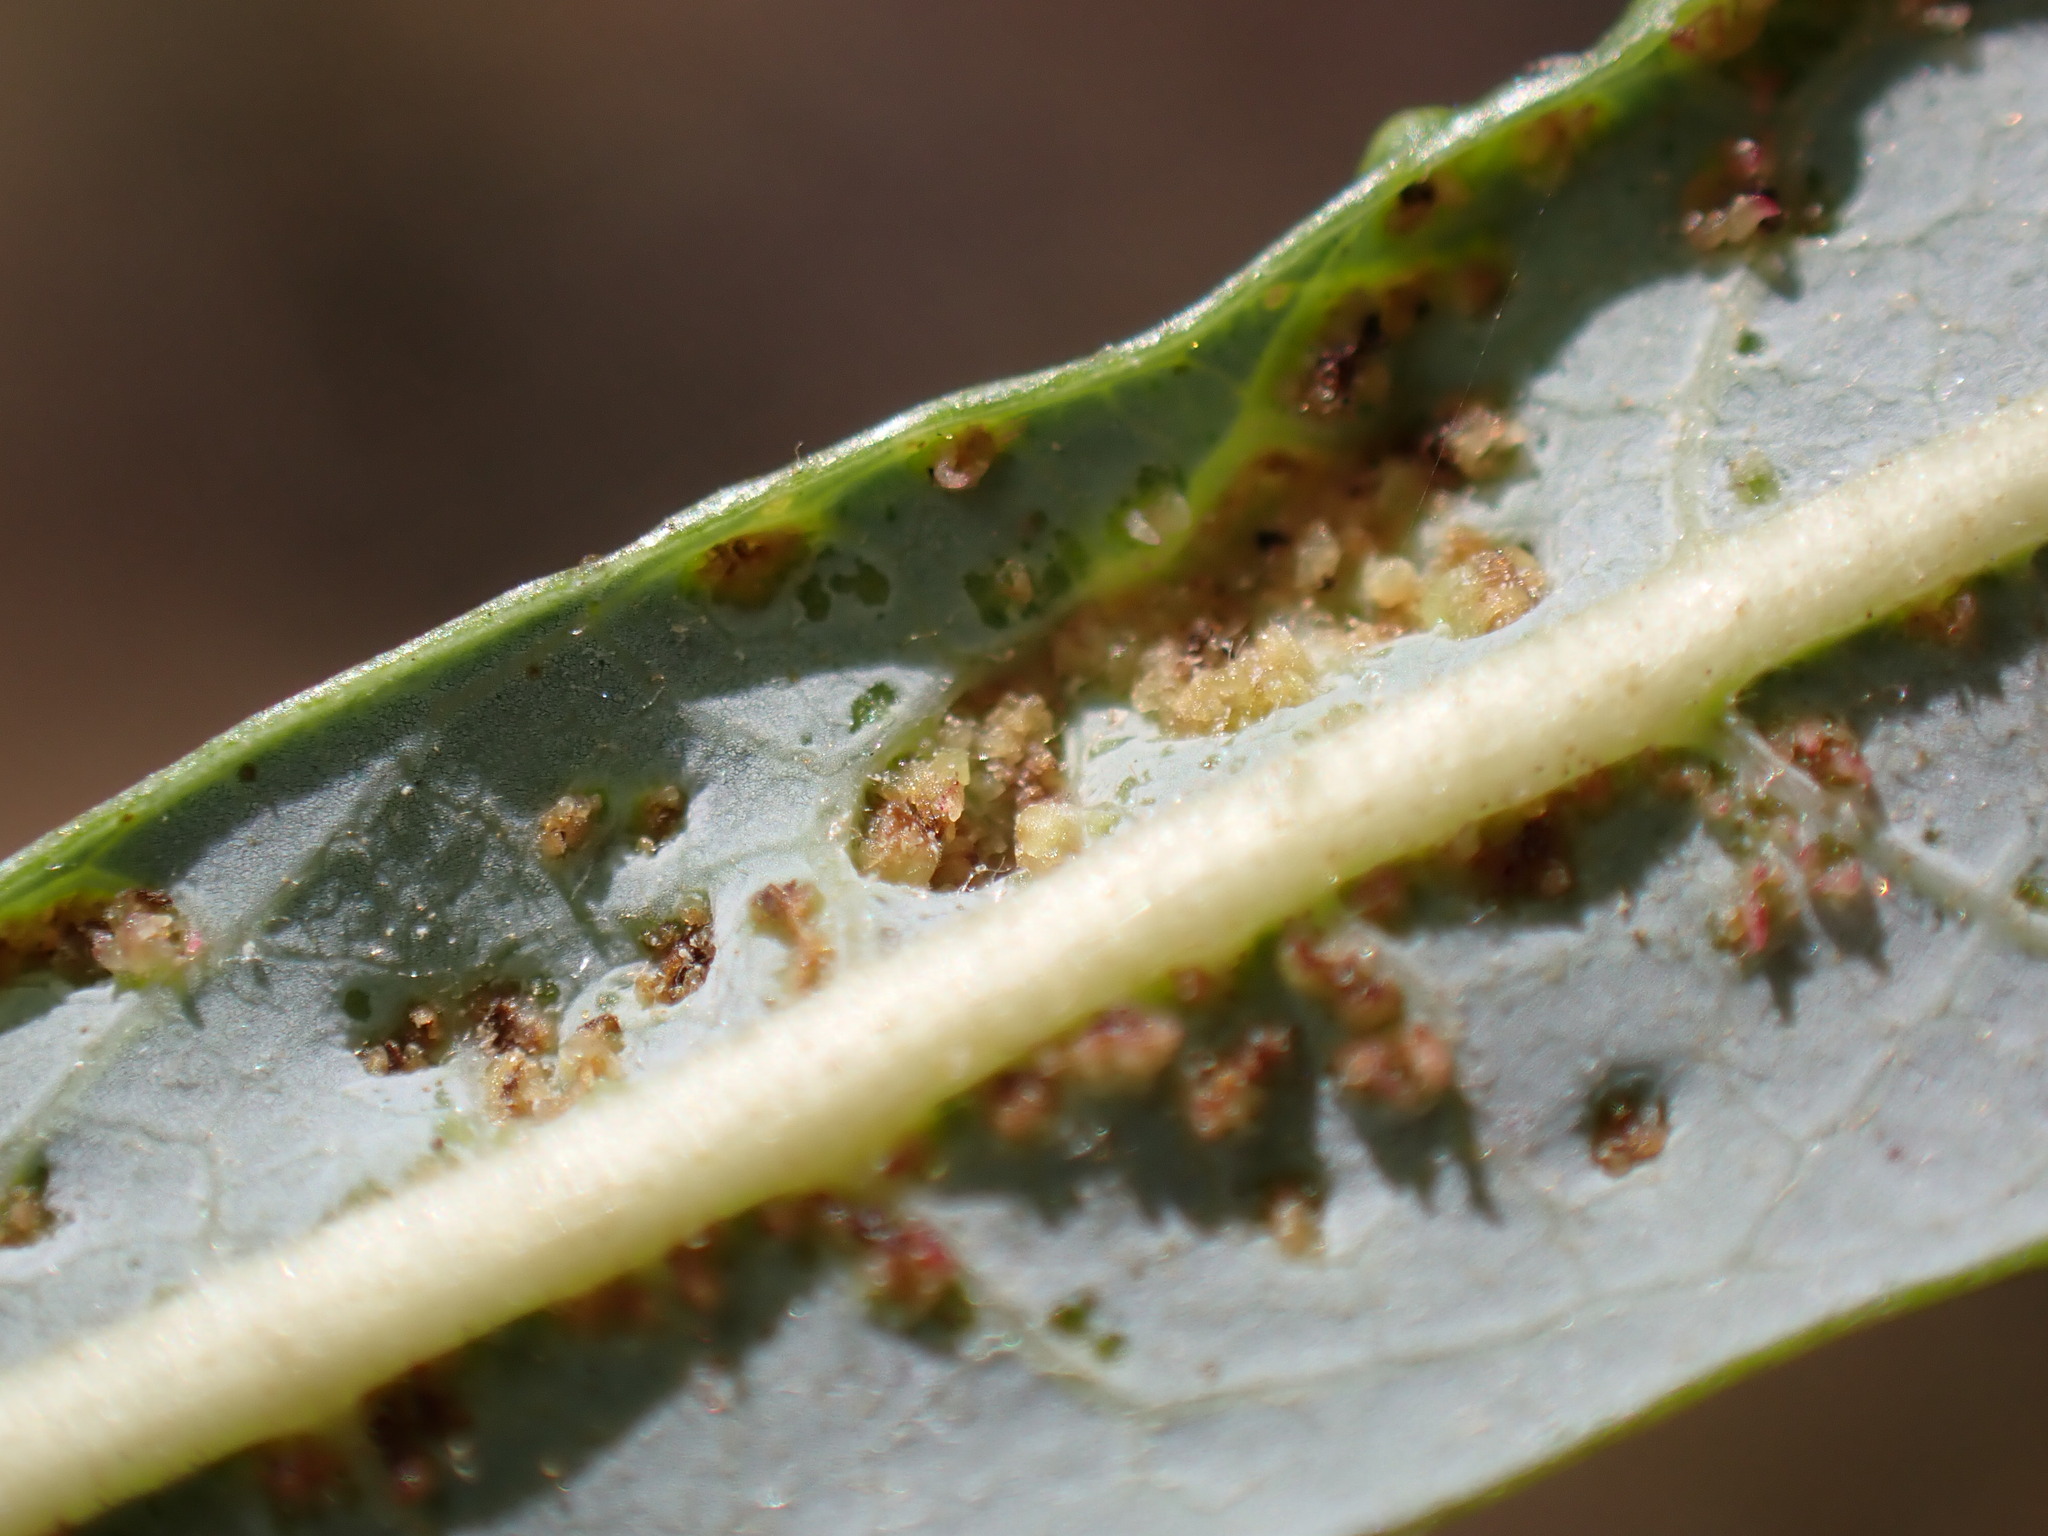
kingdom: Animalia
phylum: Arthropoda
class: Arachnida
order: Trombidiformes
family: Eriophyidae
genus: Aculus
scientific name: Aculus tetanothrix
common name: Willow bead gall mite
